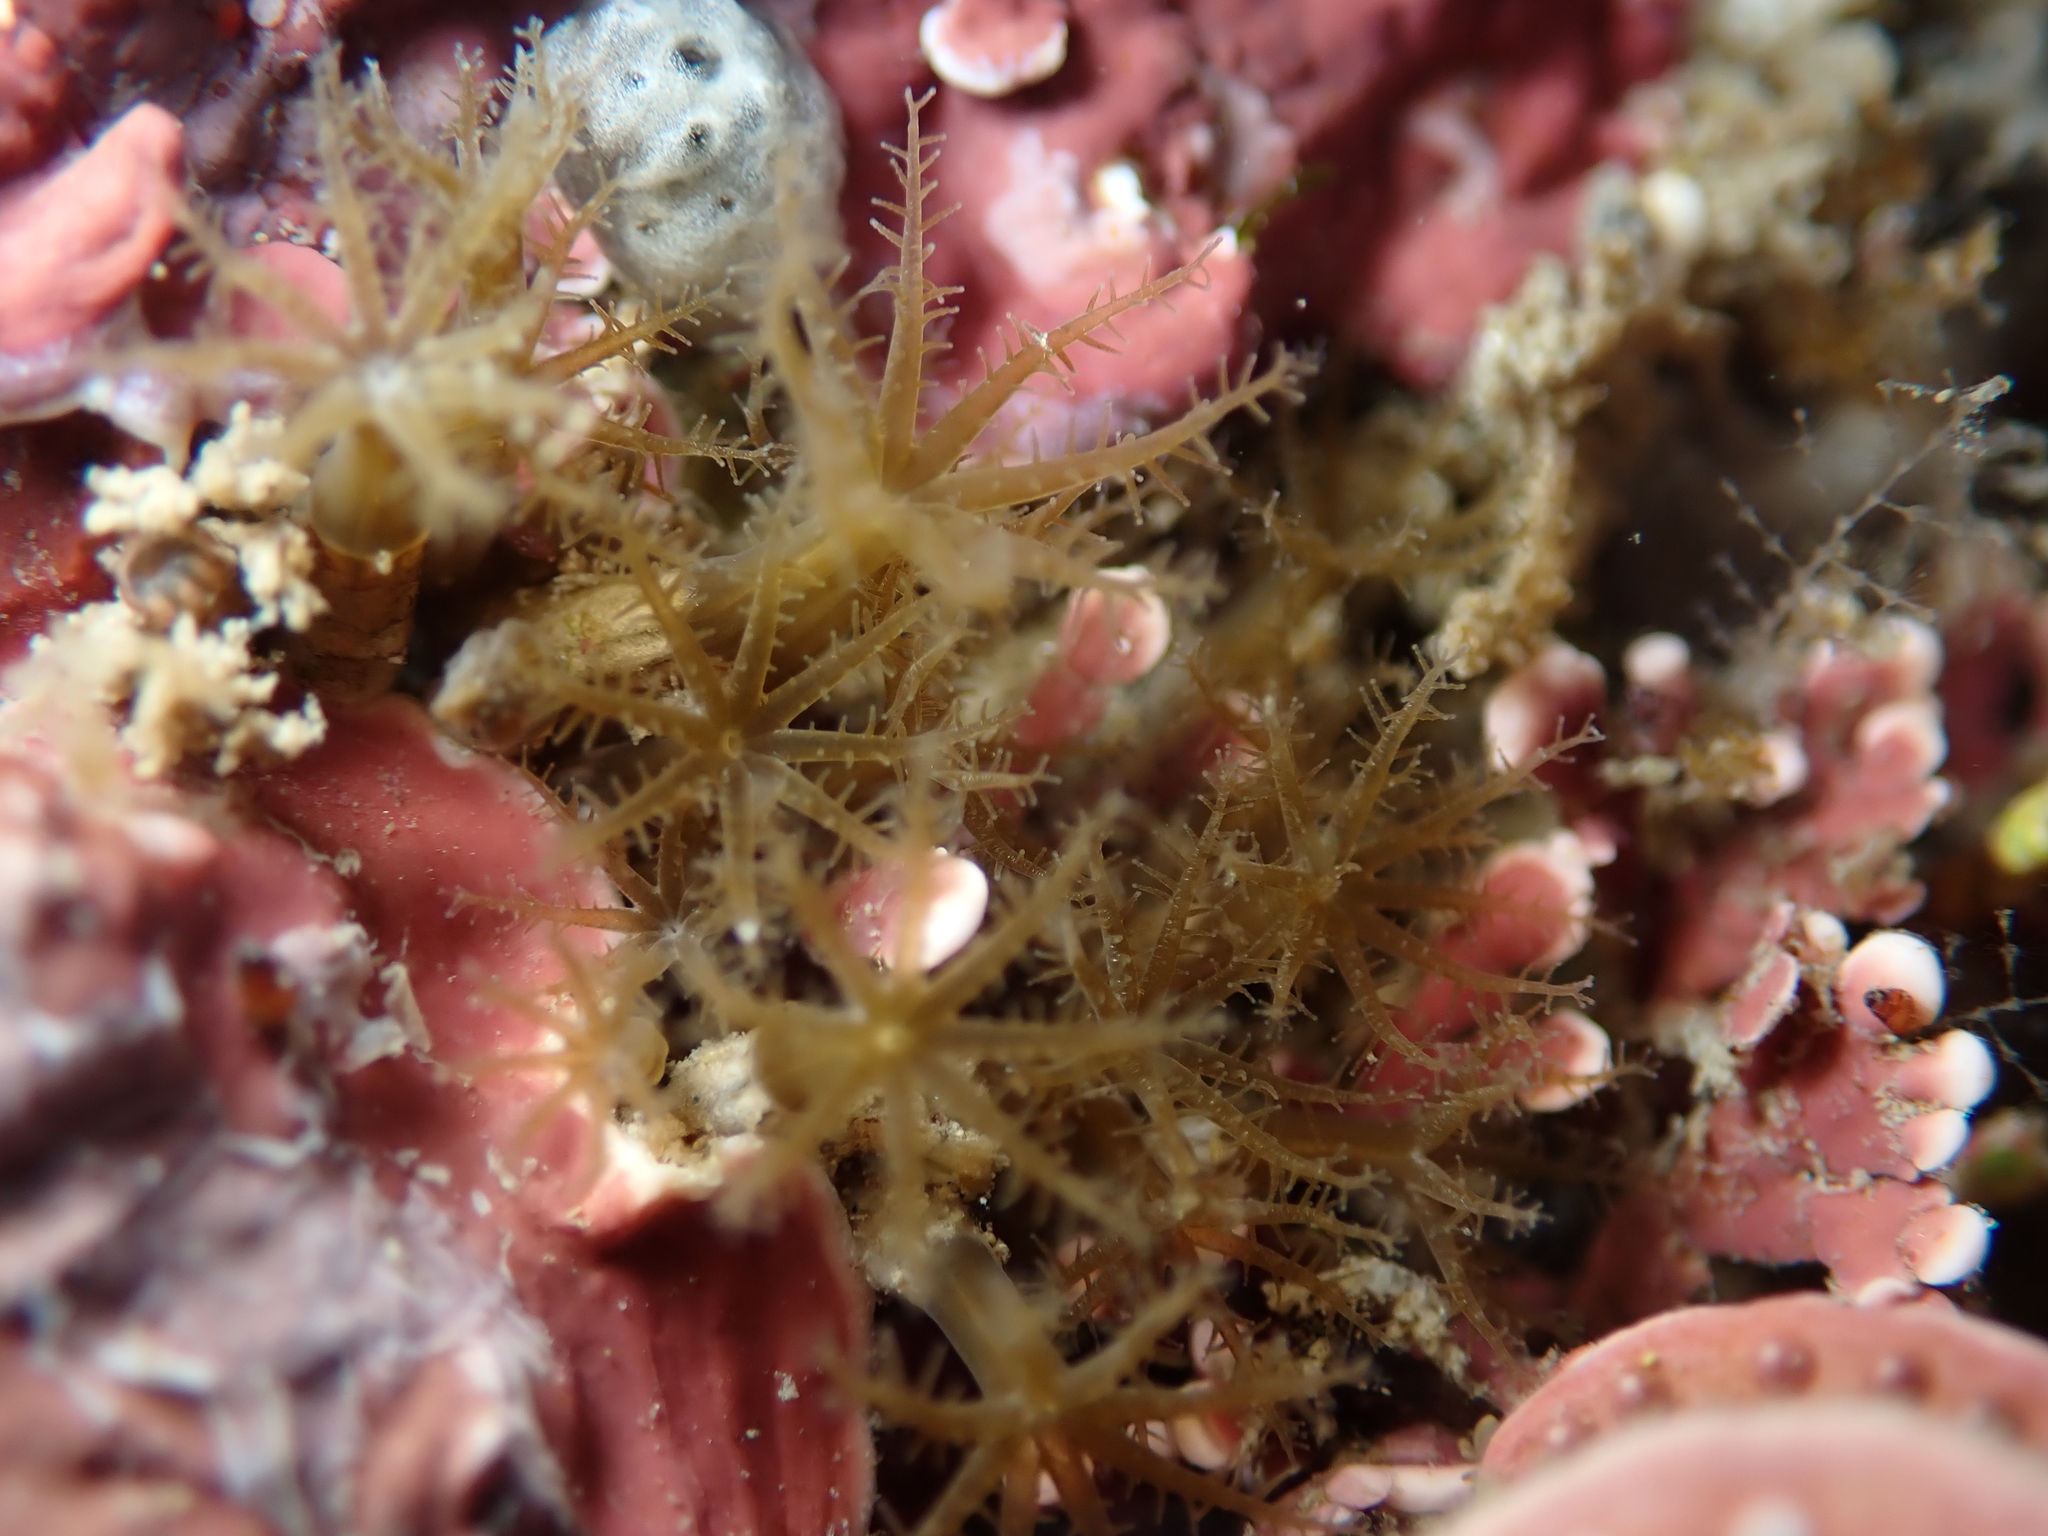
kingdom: Animalia
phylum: Cnidaria
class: Anthozoa
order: Malacalcyonacea
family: Clavulariidae
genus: Clavularia
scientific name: Clavularia novaezealandiae
